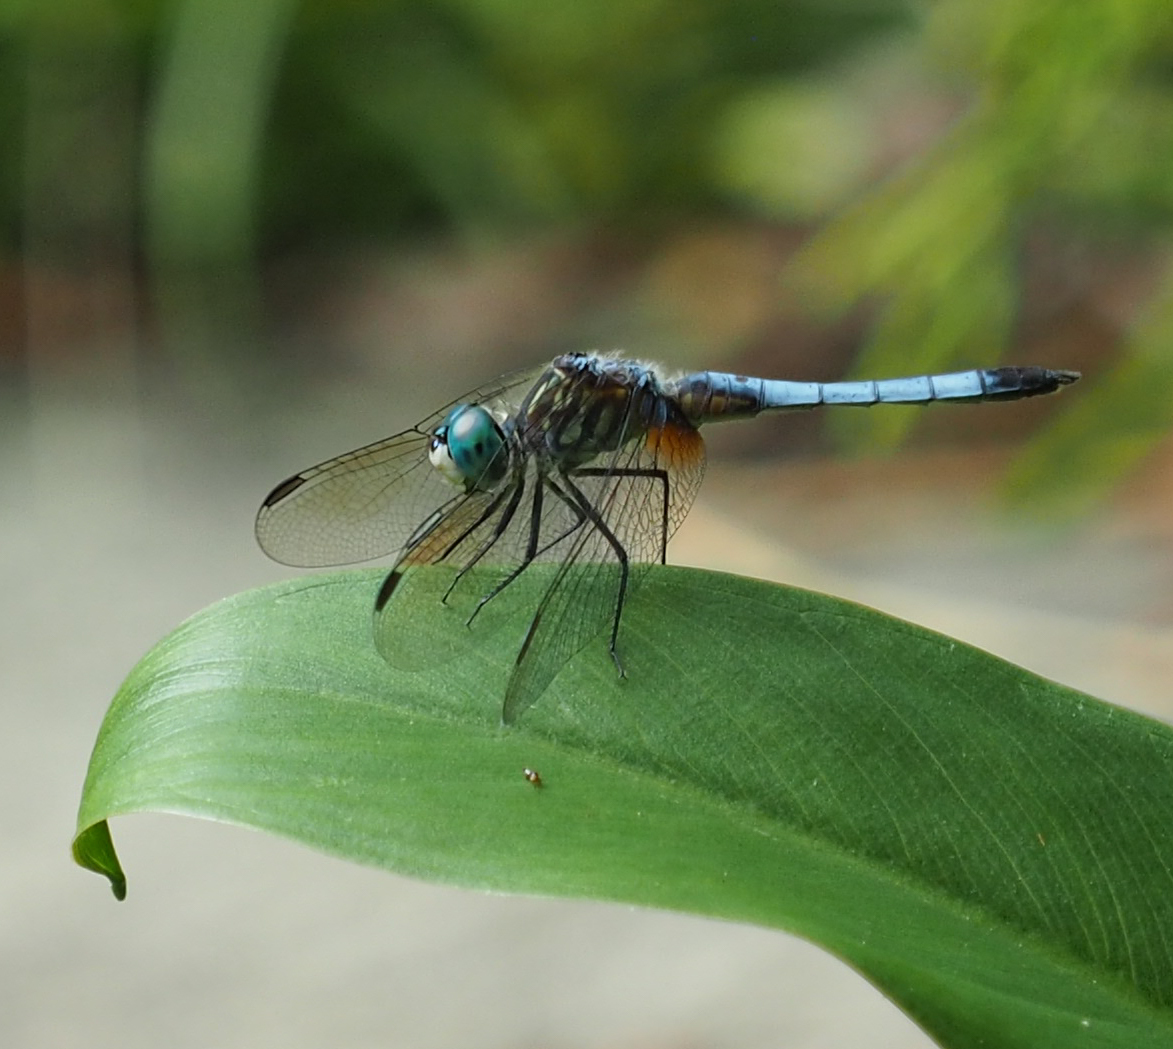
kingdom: Animalia
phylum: Arthropoda
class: Insecta
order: Odonata
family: Libellulidae
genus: Pachydiplax
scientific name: Pachydiplax longipennis
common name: Blue dasher
